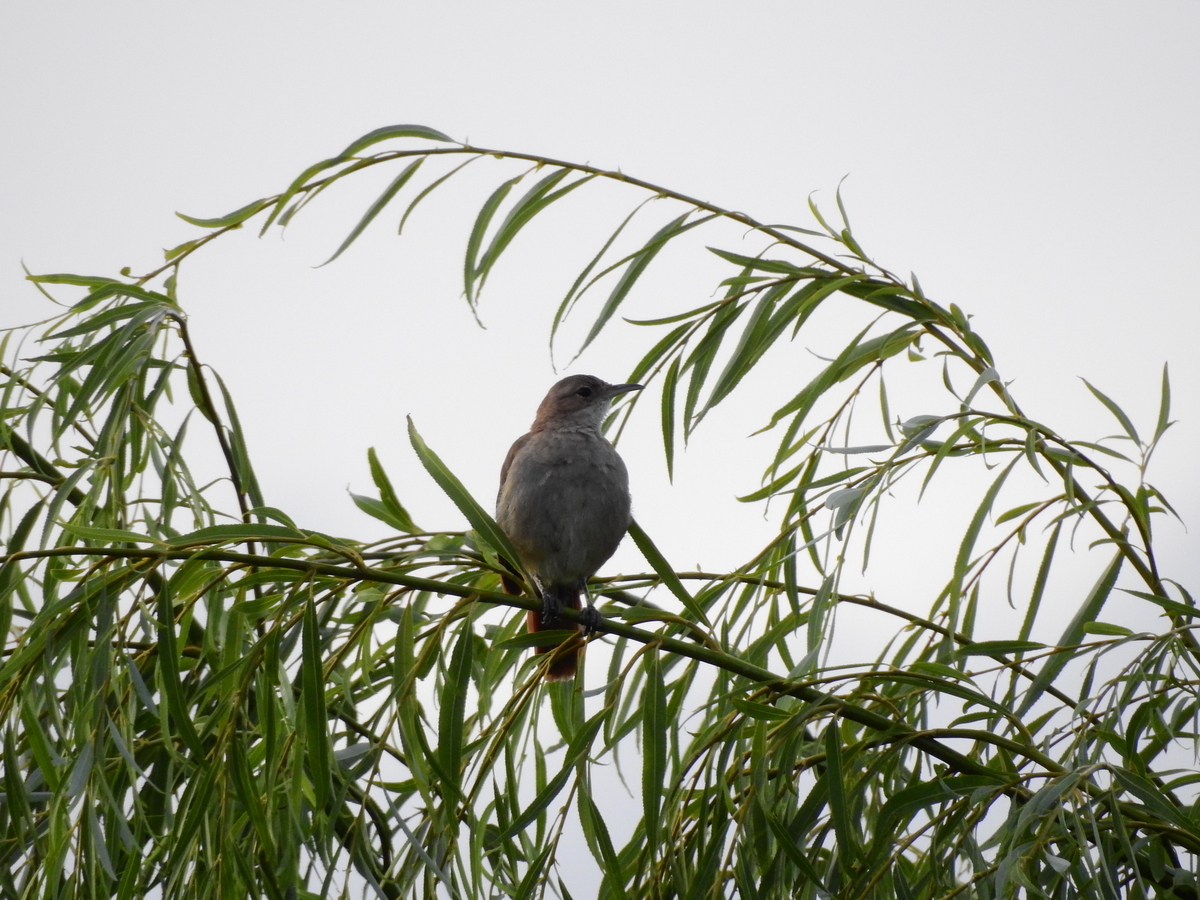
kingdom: Animalia
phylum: Chordata
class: Aves
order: Passeriformes
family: Furnariidae
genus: Furnarius
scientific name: Furnarius rufus
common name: Rufous hornero
